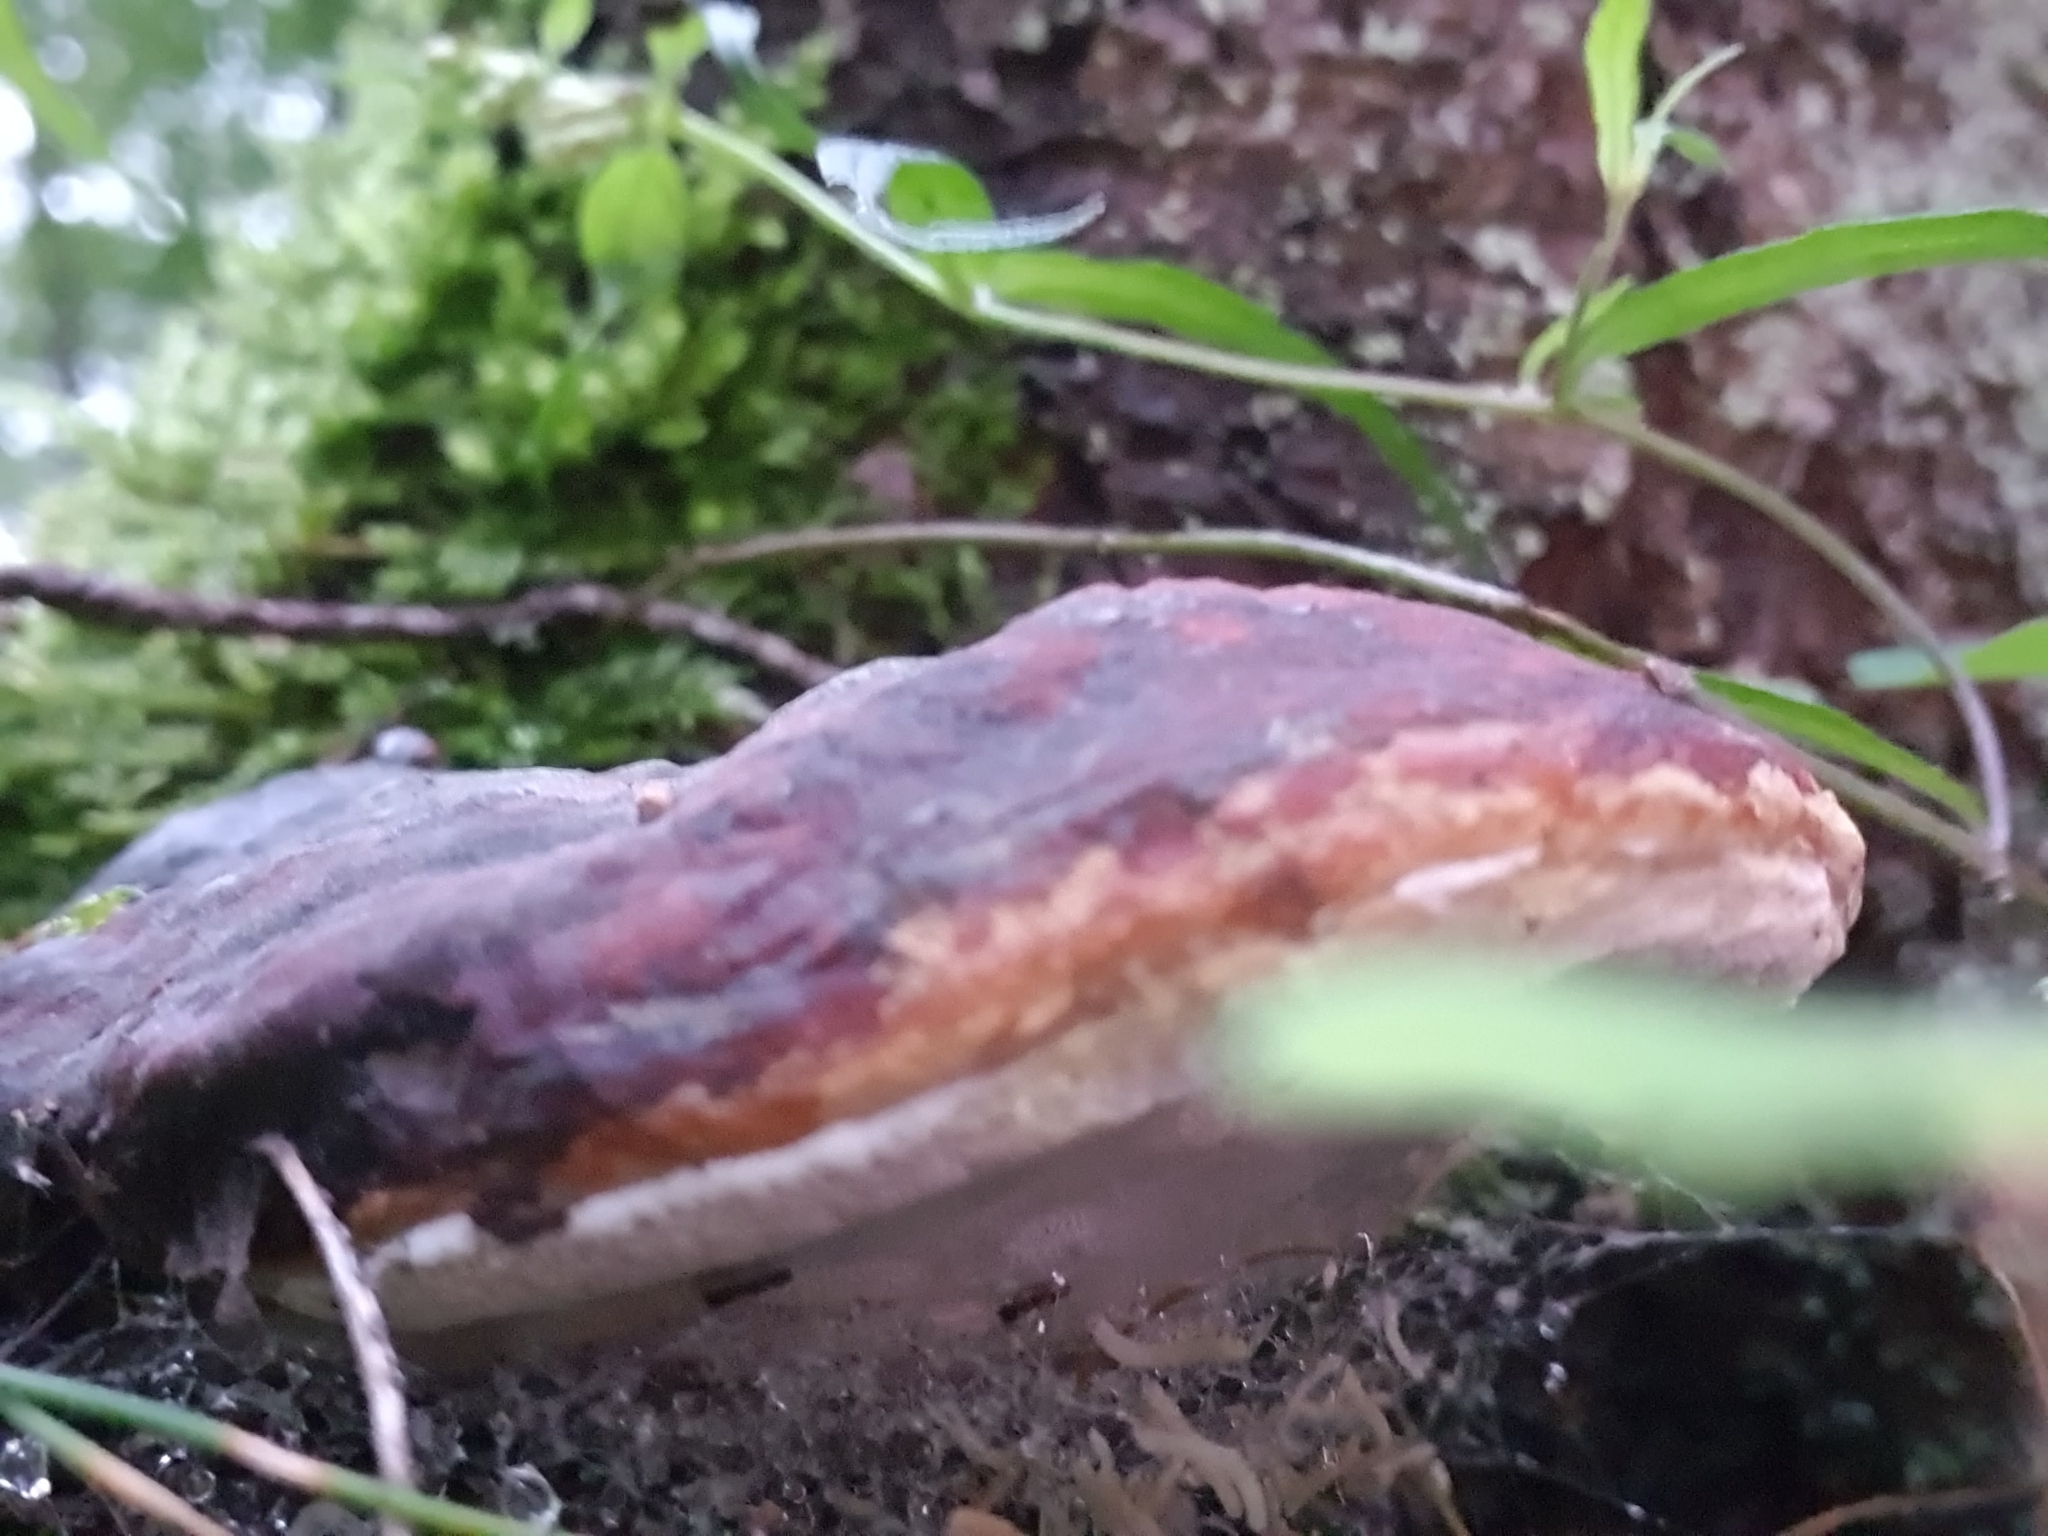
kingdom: Fungi
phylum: Basidiomycota
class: Agaricomycetes
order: Polyporales
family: Fomitopsidaceae
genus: Fomitopsis
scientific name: Fomitopsis pinicola
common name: Red-belted bracket
